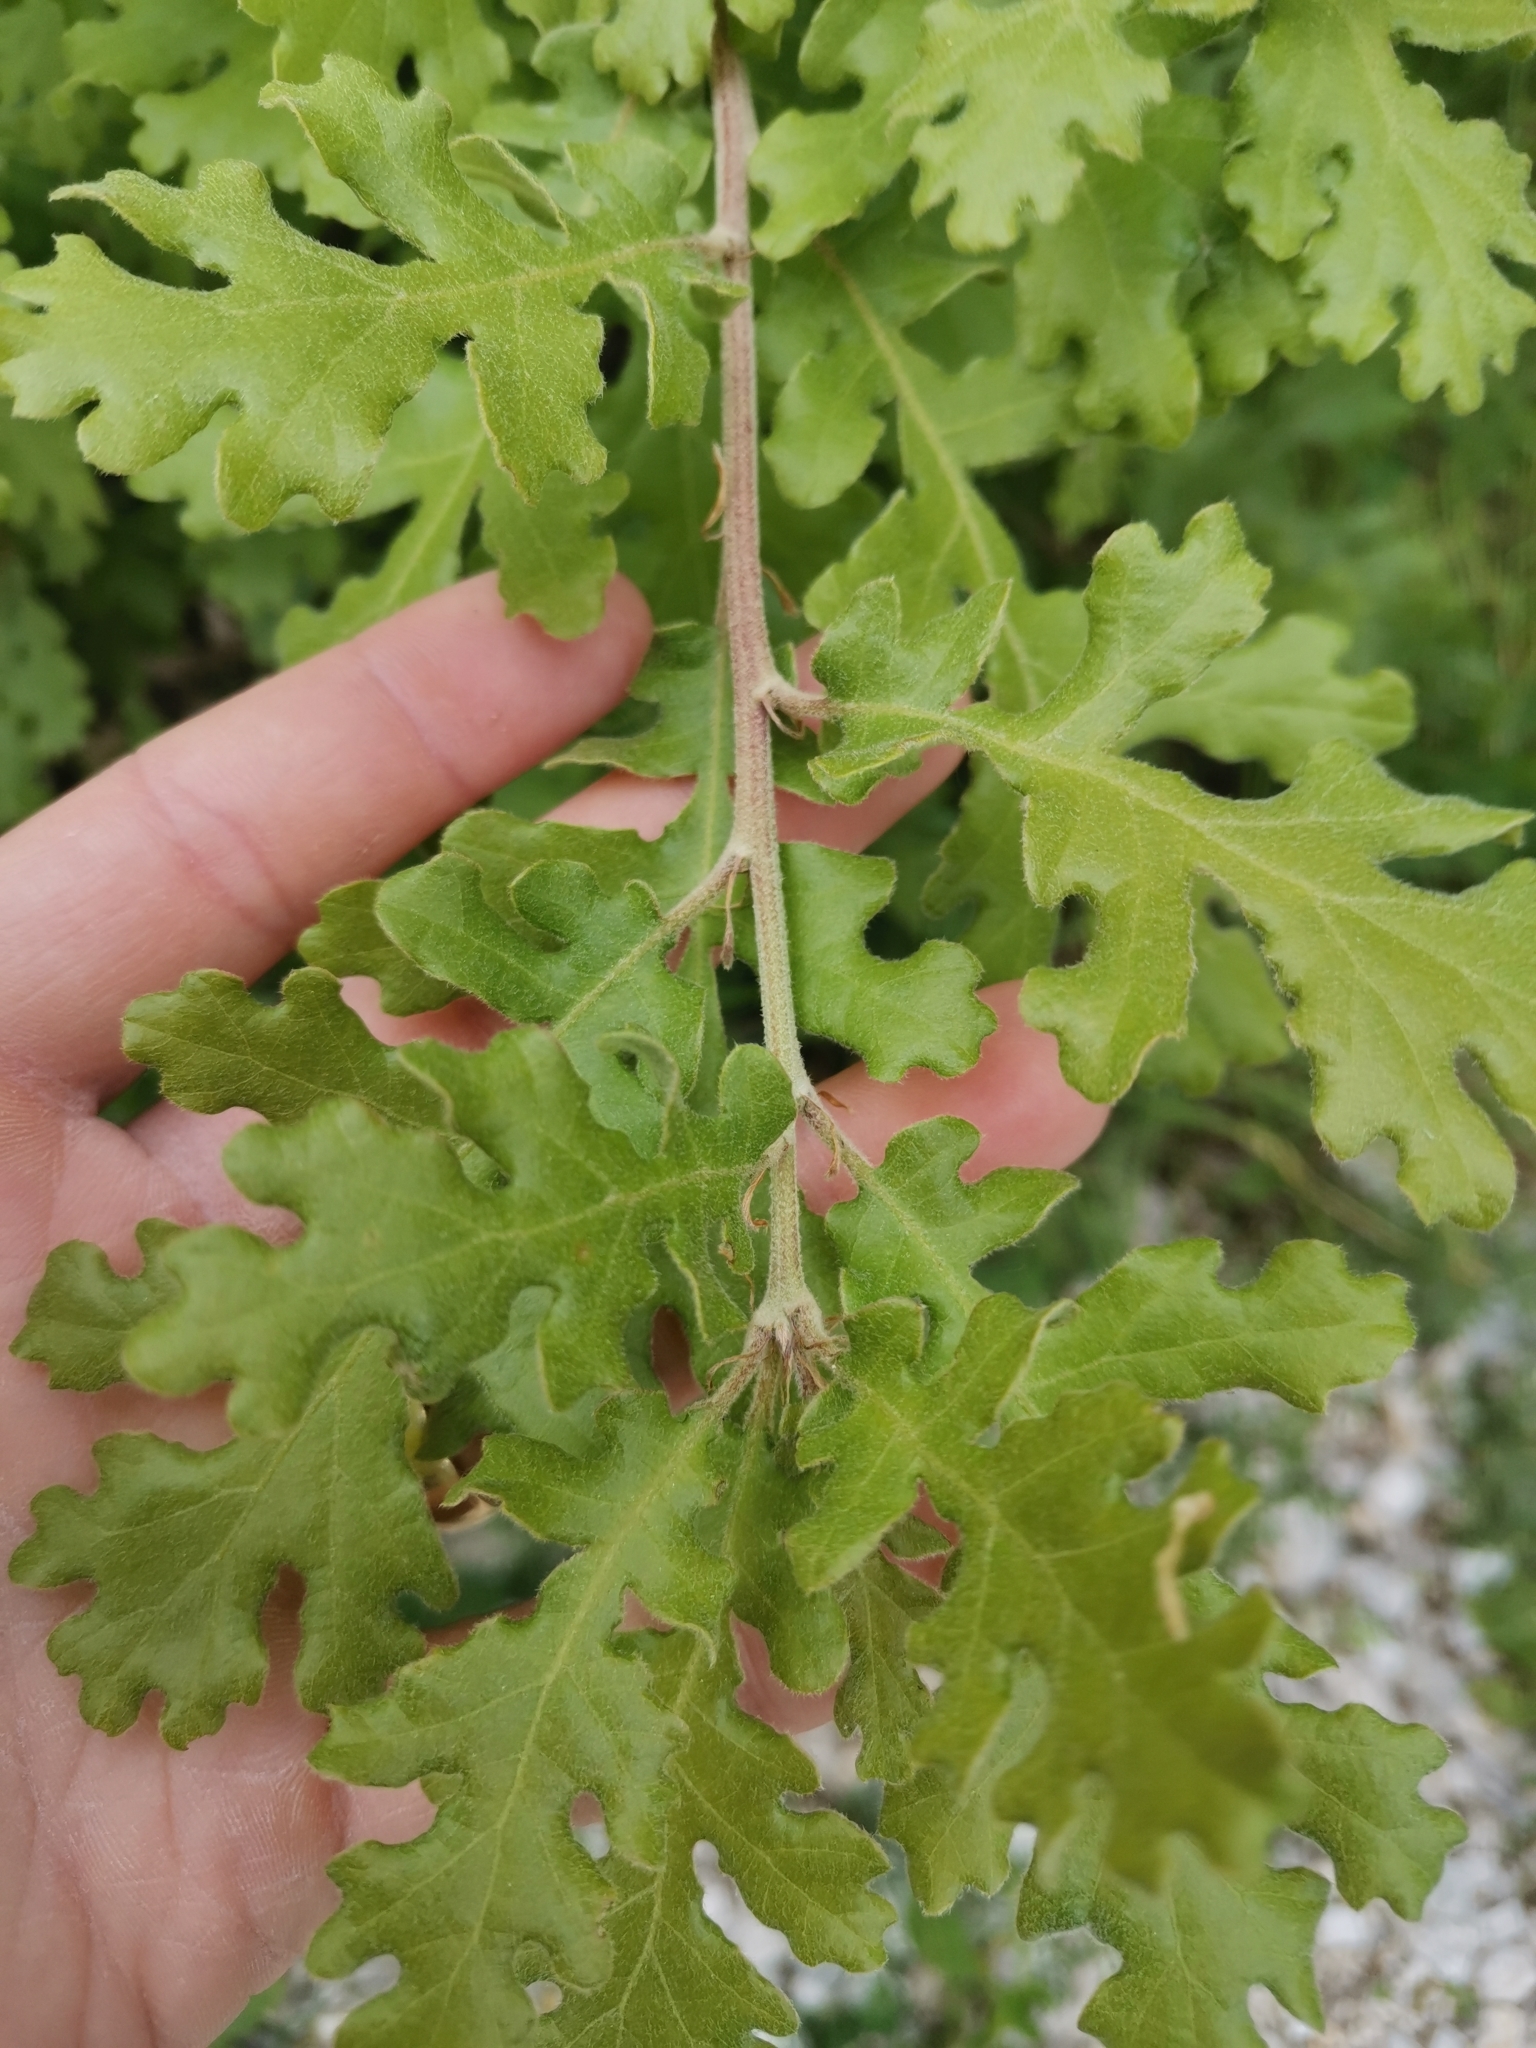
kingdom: Plantae
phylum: Tracheophyta
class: Magnoliopsida
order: Fagales
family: Fagaceae
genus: Quercus
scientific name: Quercus pubescens
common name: Downy oak
